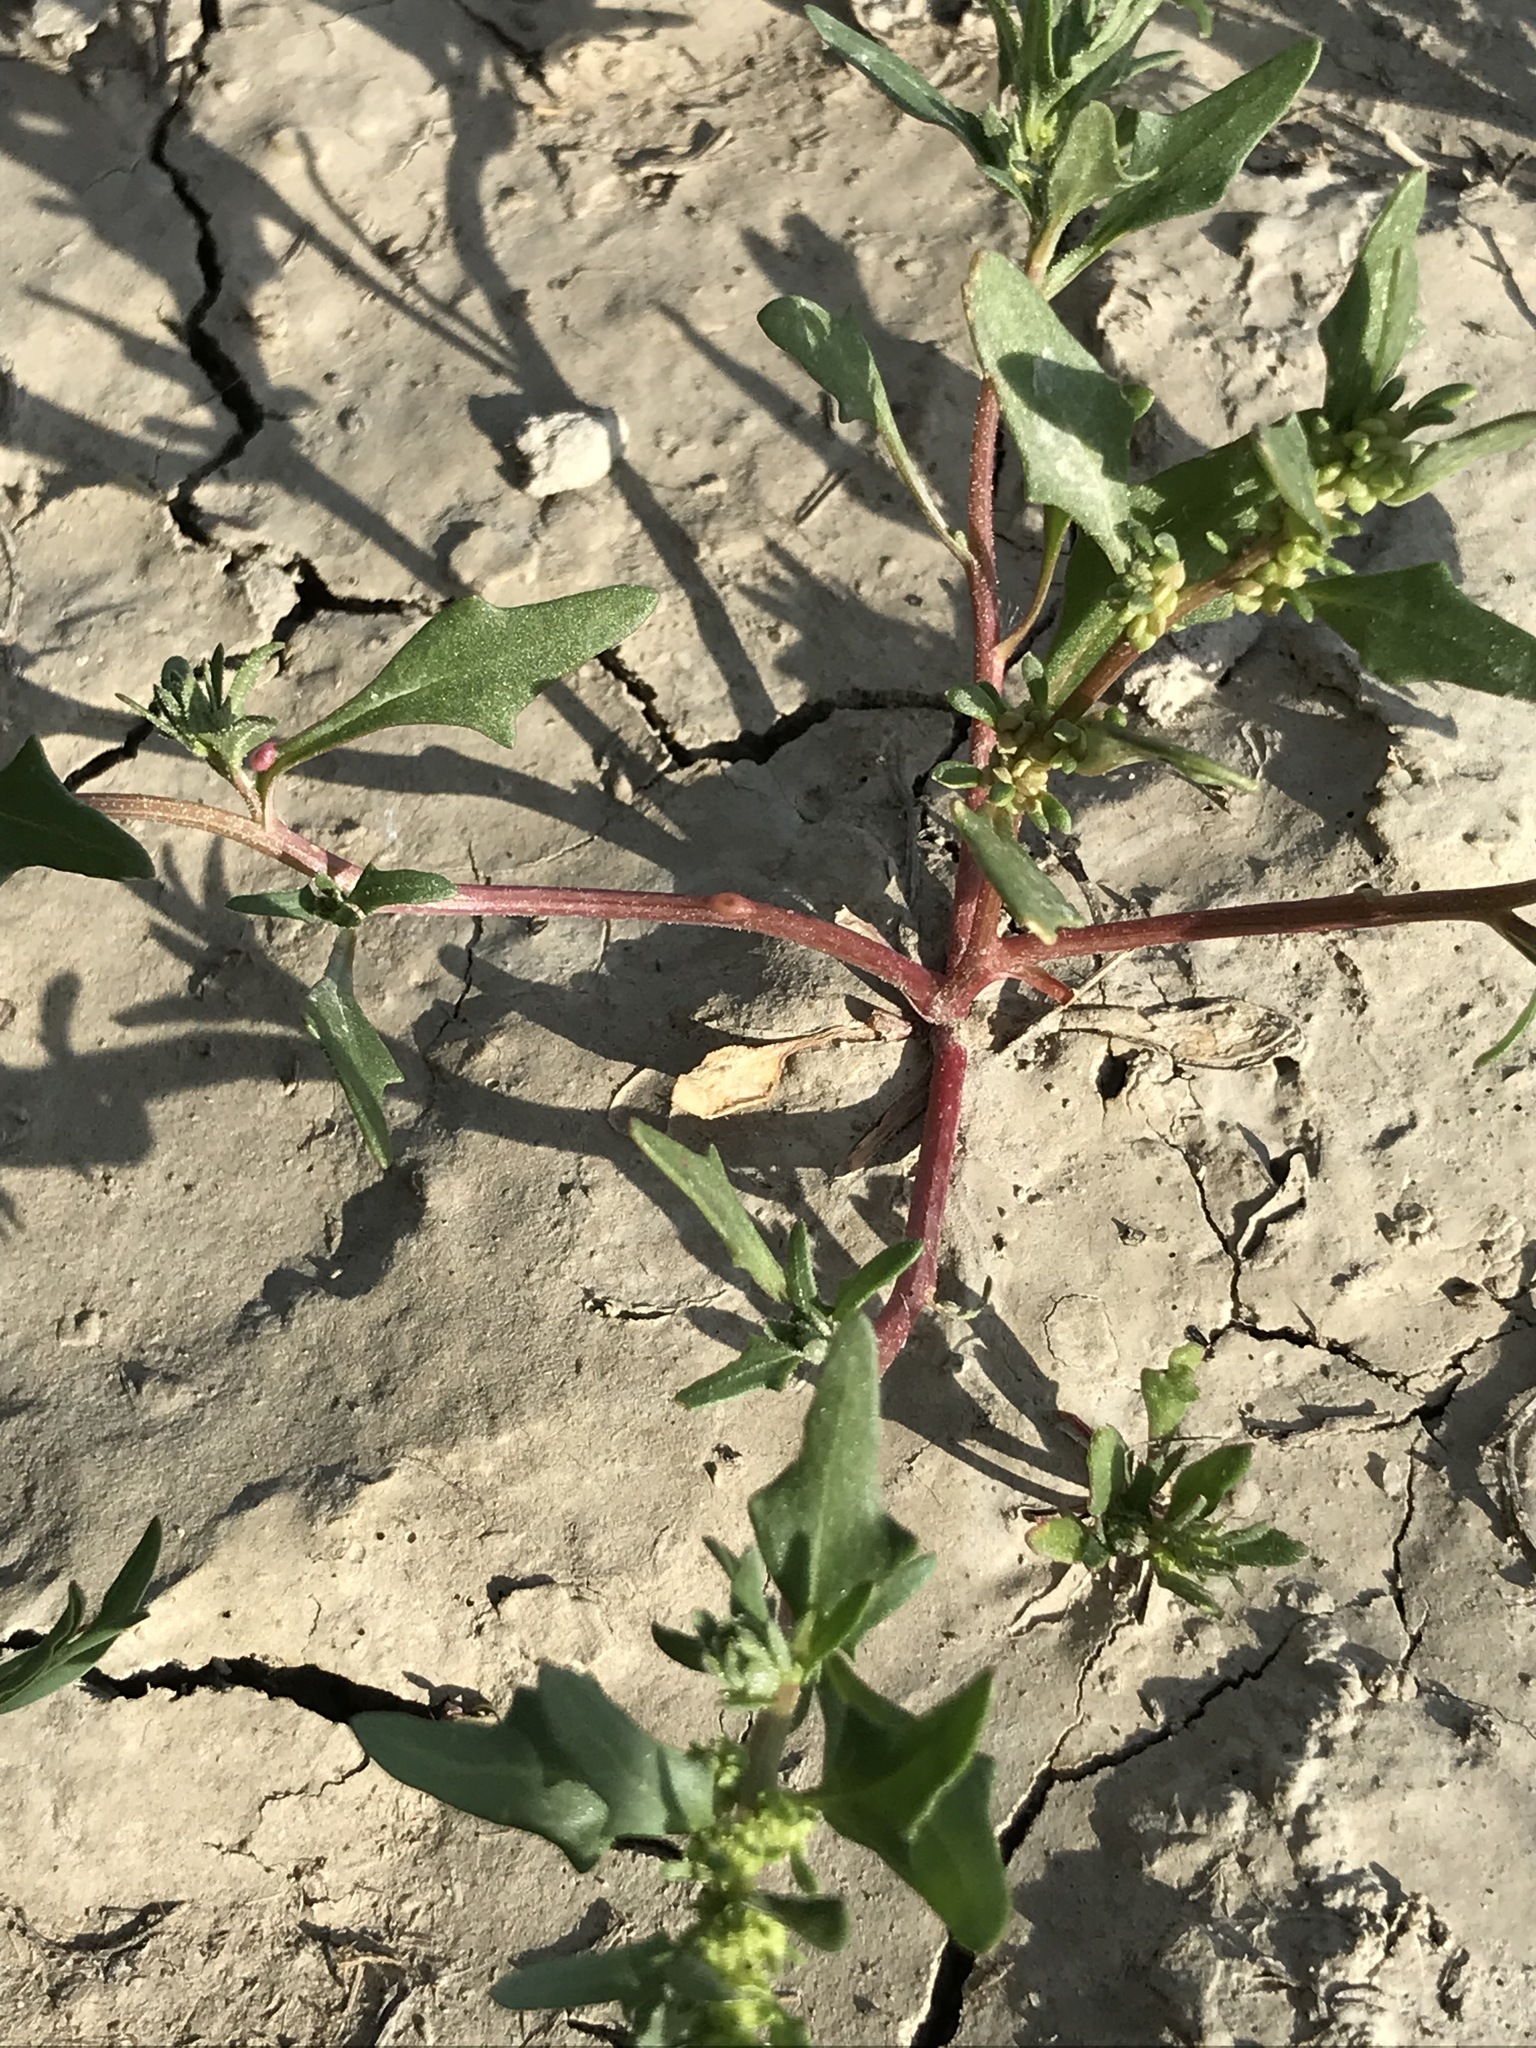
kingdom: Plantae
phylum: Tracheophyta
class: Magnoliopsida
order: Caryophyllales
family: Amaranthaceae
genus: Blitum
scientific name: Blitum nuttallianum
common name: Poverty-weed
